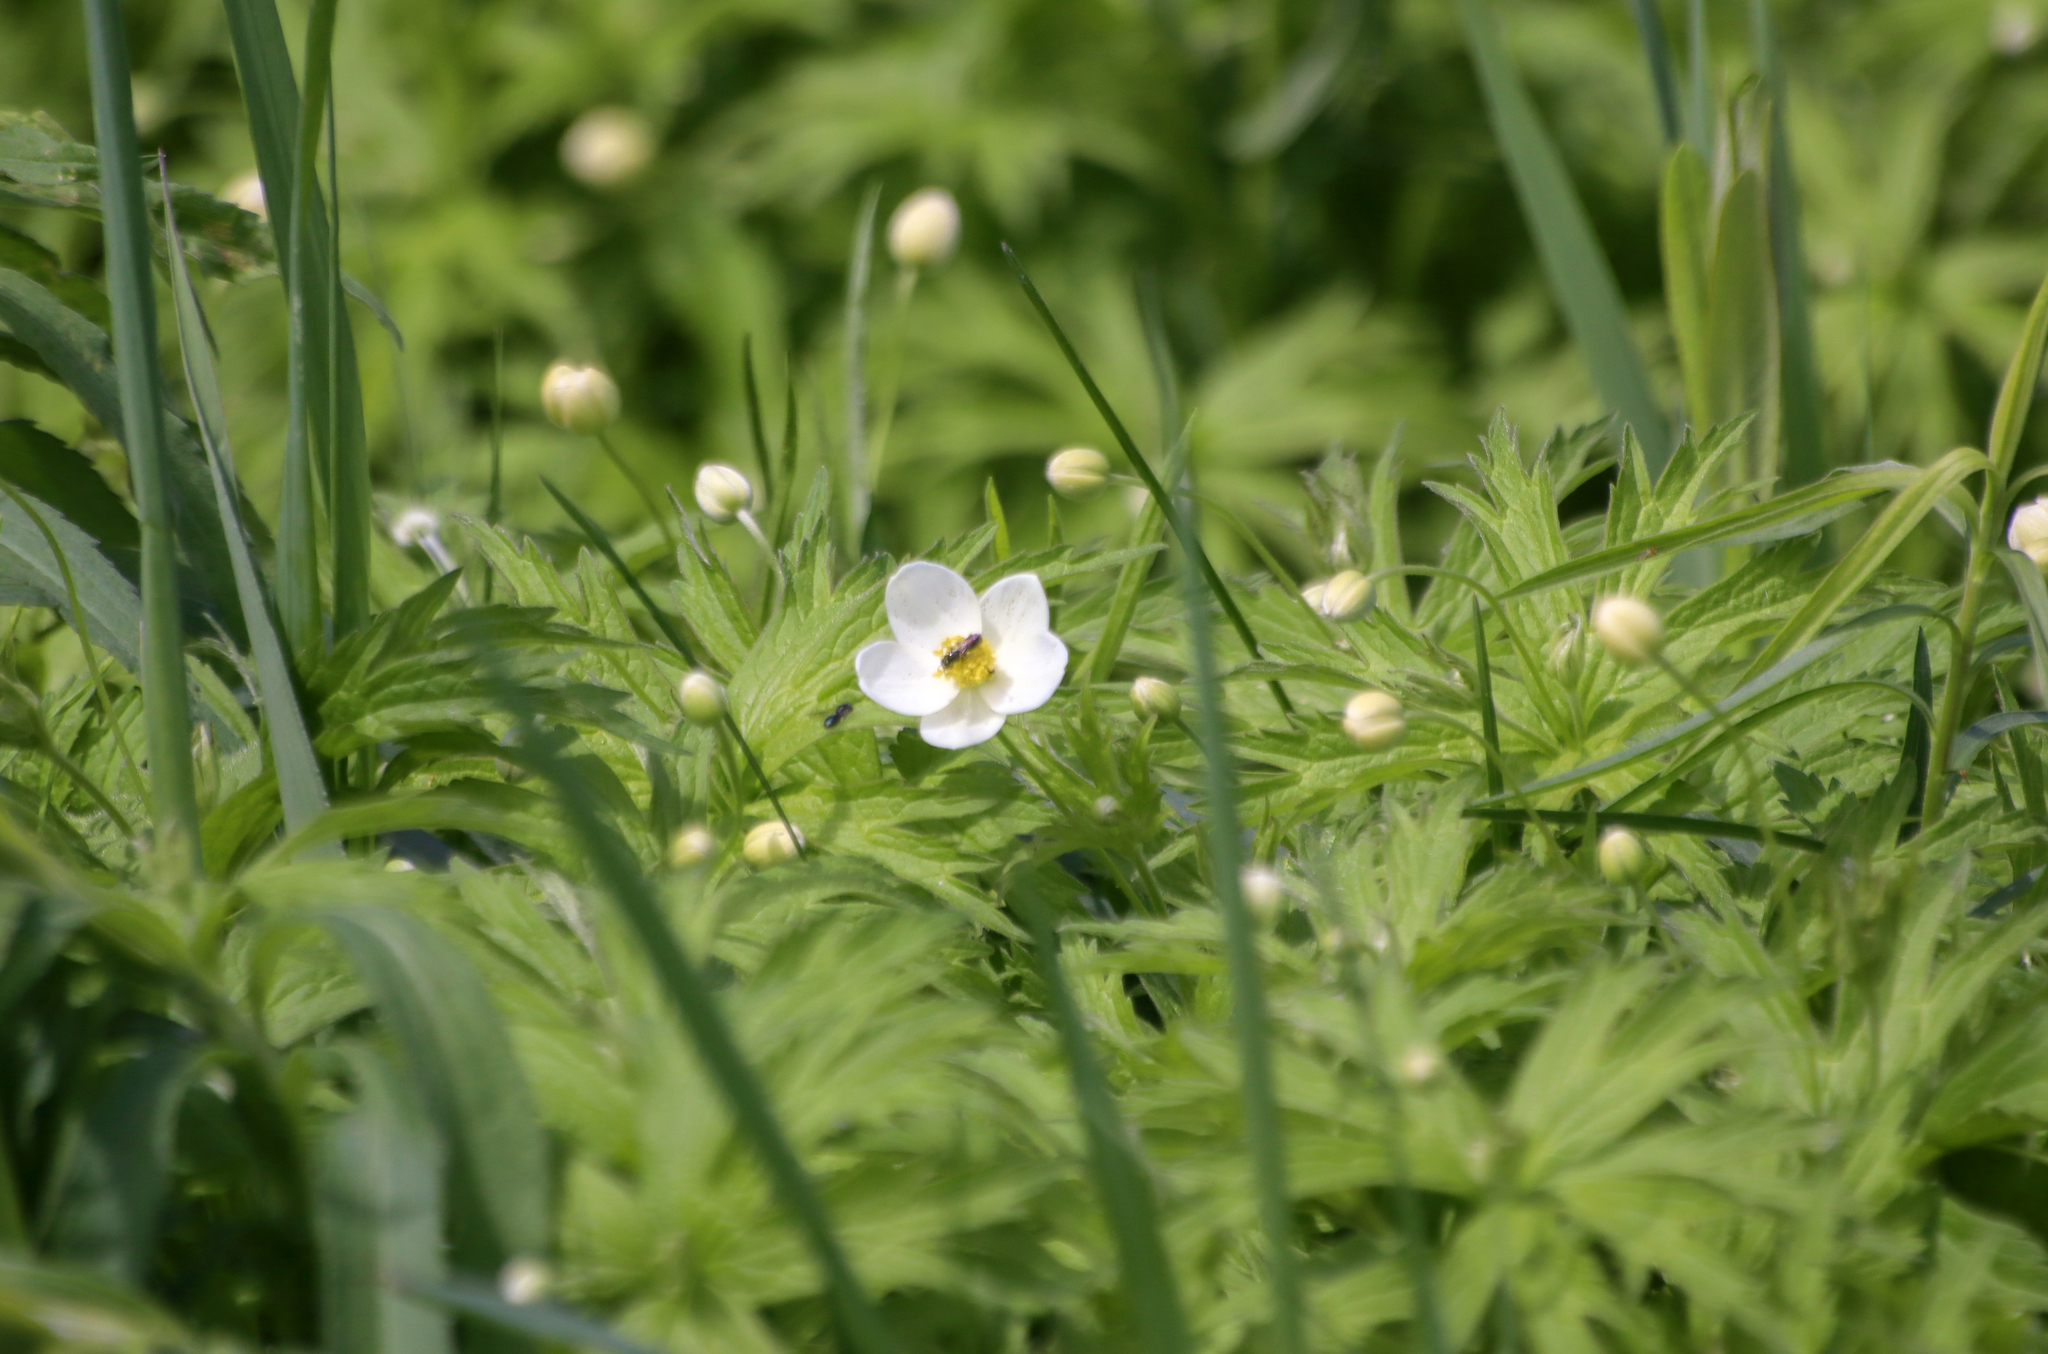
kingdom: Plantae
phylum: Tracheophyta
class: Magnoliopsida
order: Ranunculales
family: Ranunculaceae
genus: Anemonastrum
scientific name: Anemonastrum canadense
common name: Canada anemone
